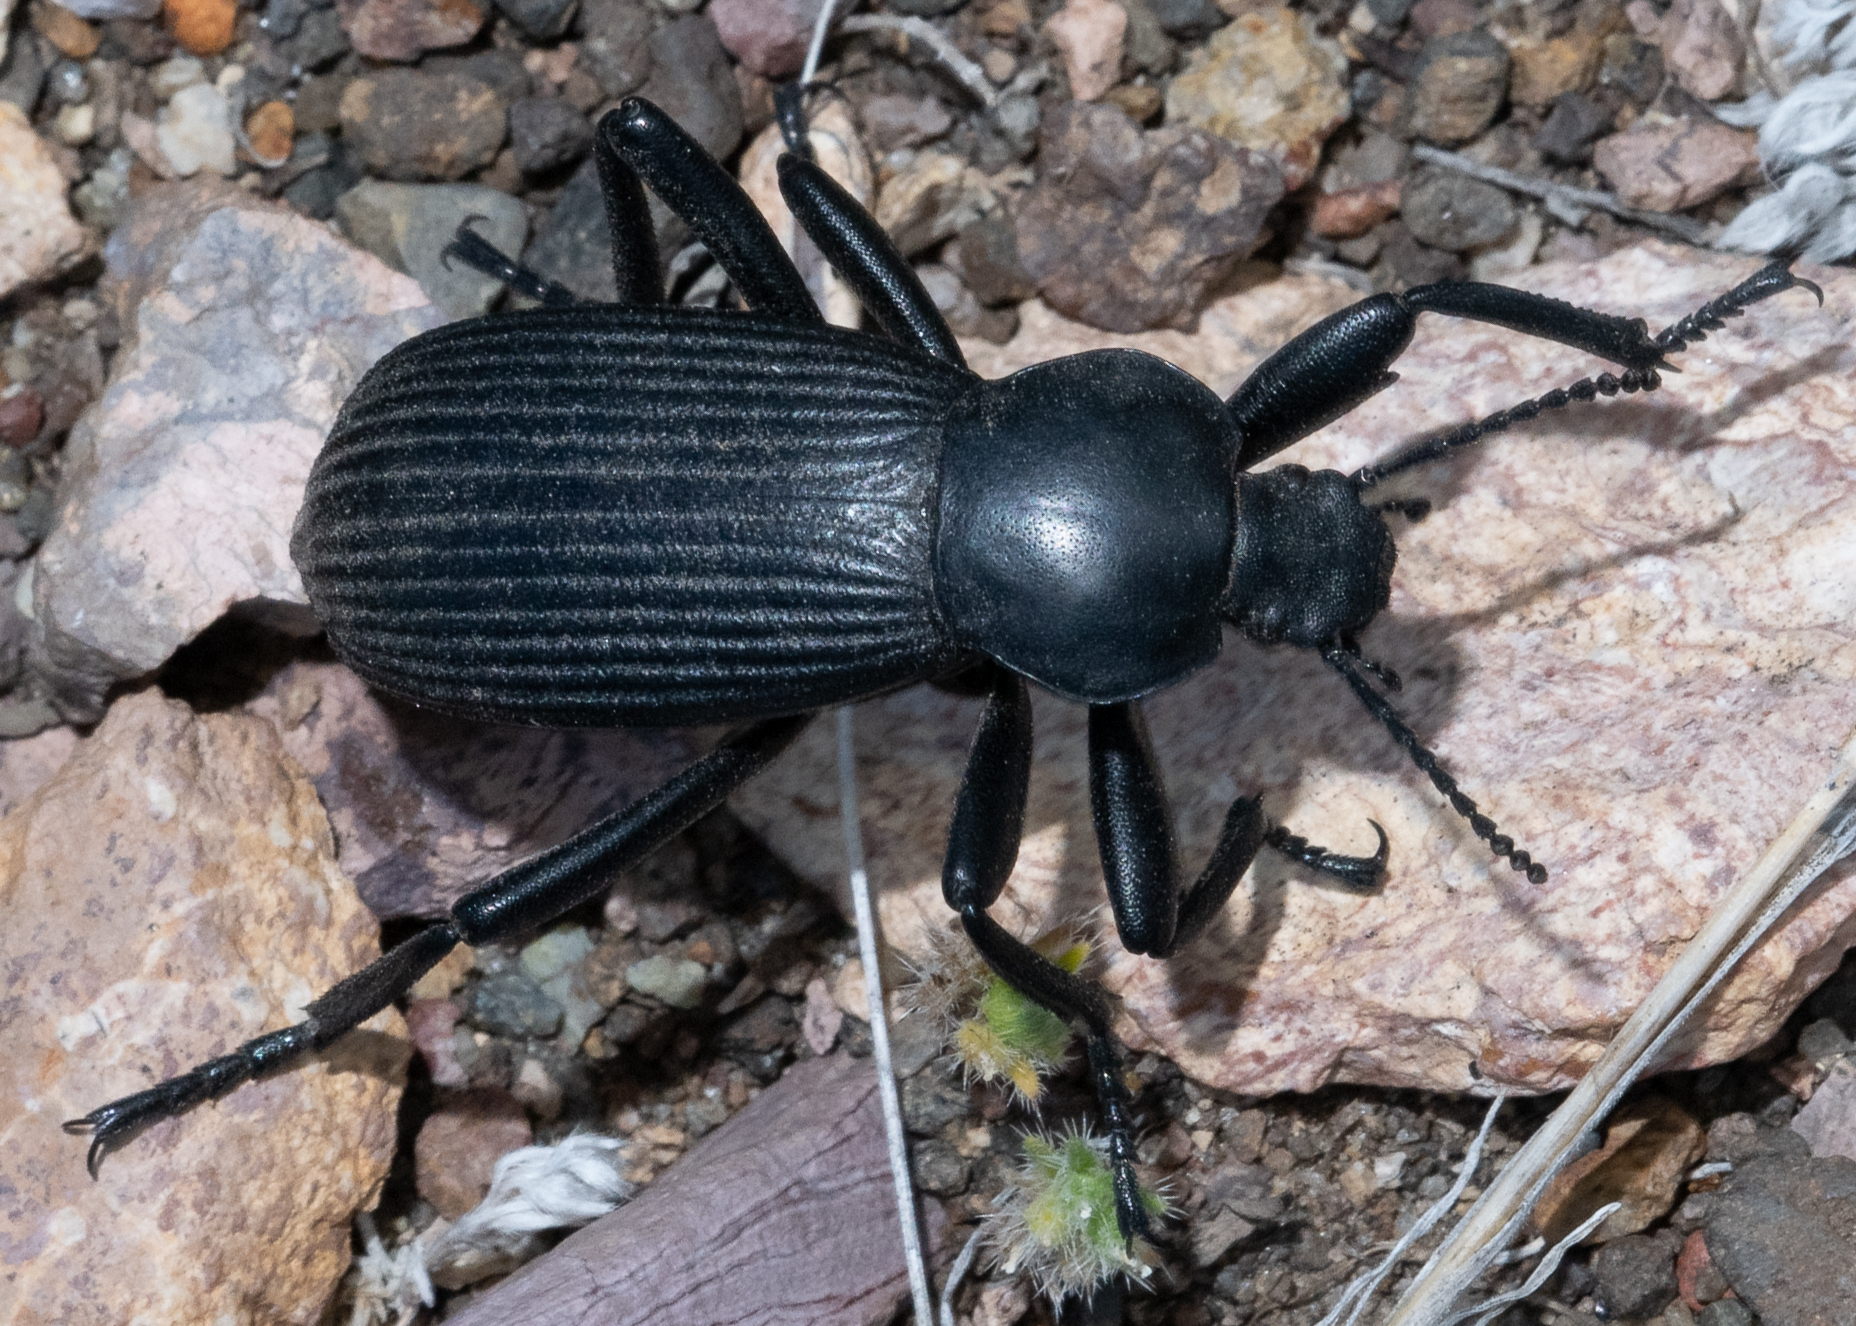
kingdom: Animalia
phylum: Arthropoda
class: Insecta
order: Coleoptera
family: Tenebrionidae
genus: Eleodes
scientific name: Eleodes obscura
